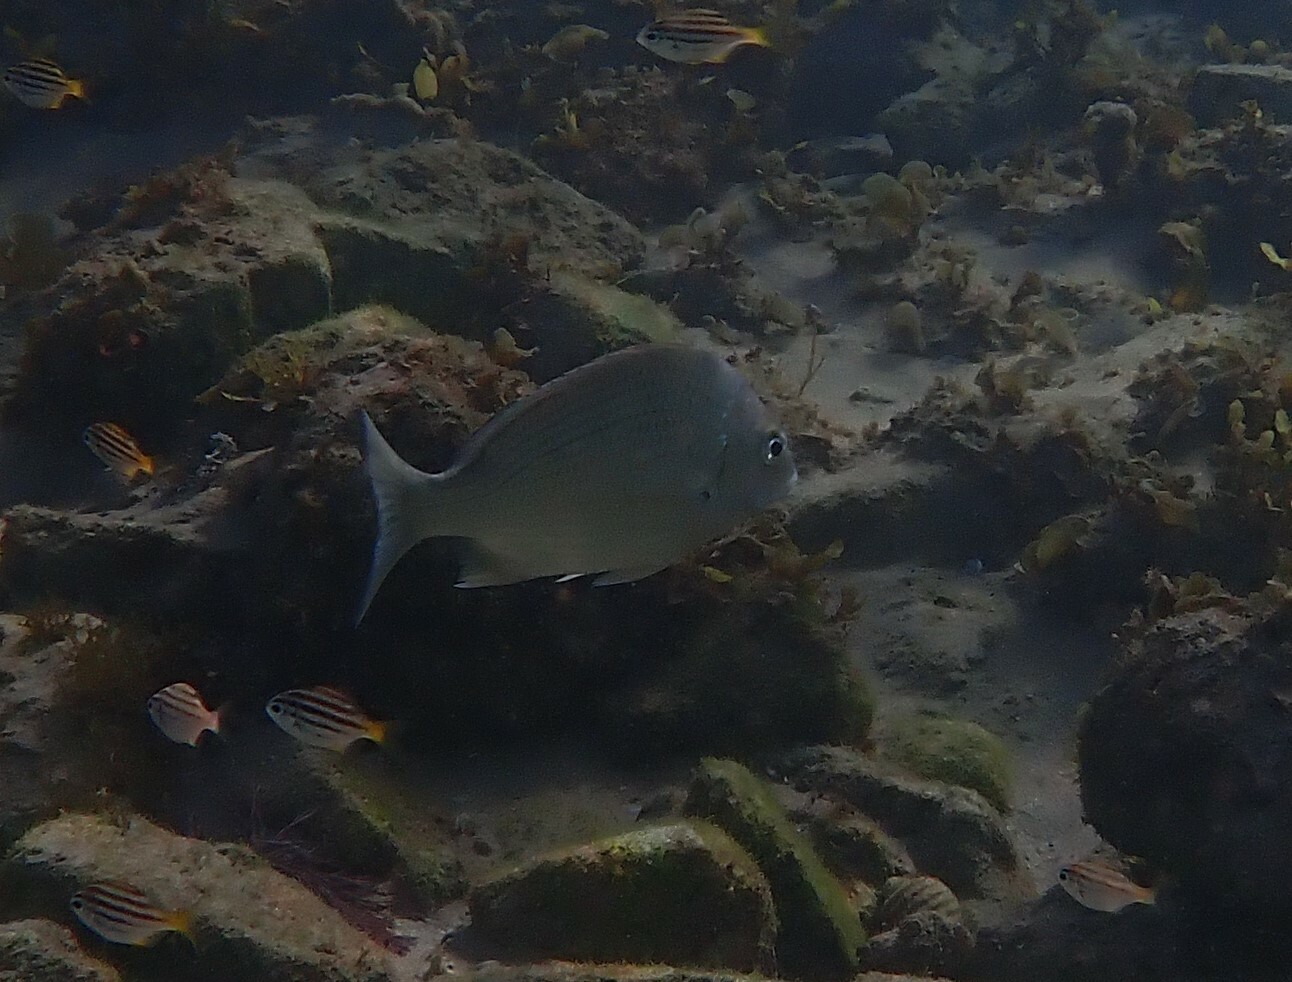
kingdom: Animalia
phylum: Chordata
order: Perciformes
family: Sparidae
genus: Acanthopagrus
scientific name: Acanthopagrus australis
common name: Surf bream
